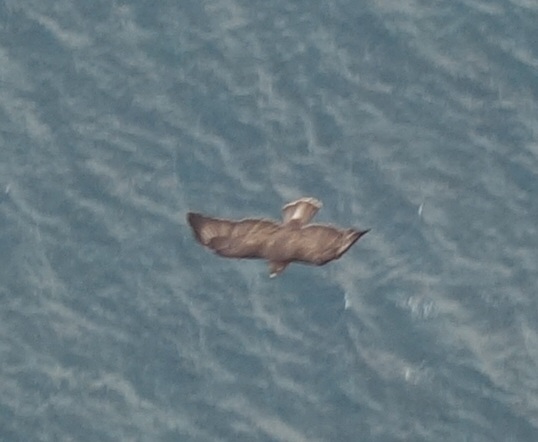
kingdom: Animalia
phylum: Chordata
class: Aves
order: Accipitriformes
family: Accipitridae
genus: Buteo
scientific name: Buteo buteo
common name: Common buzzard
